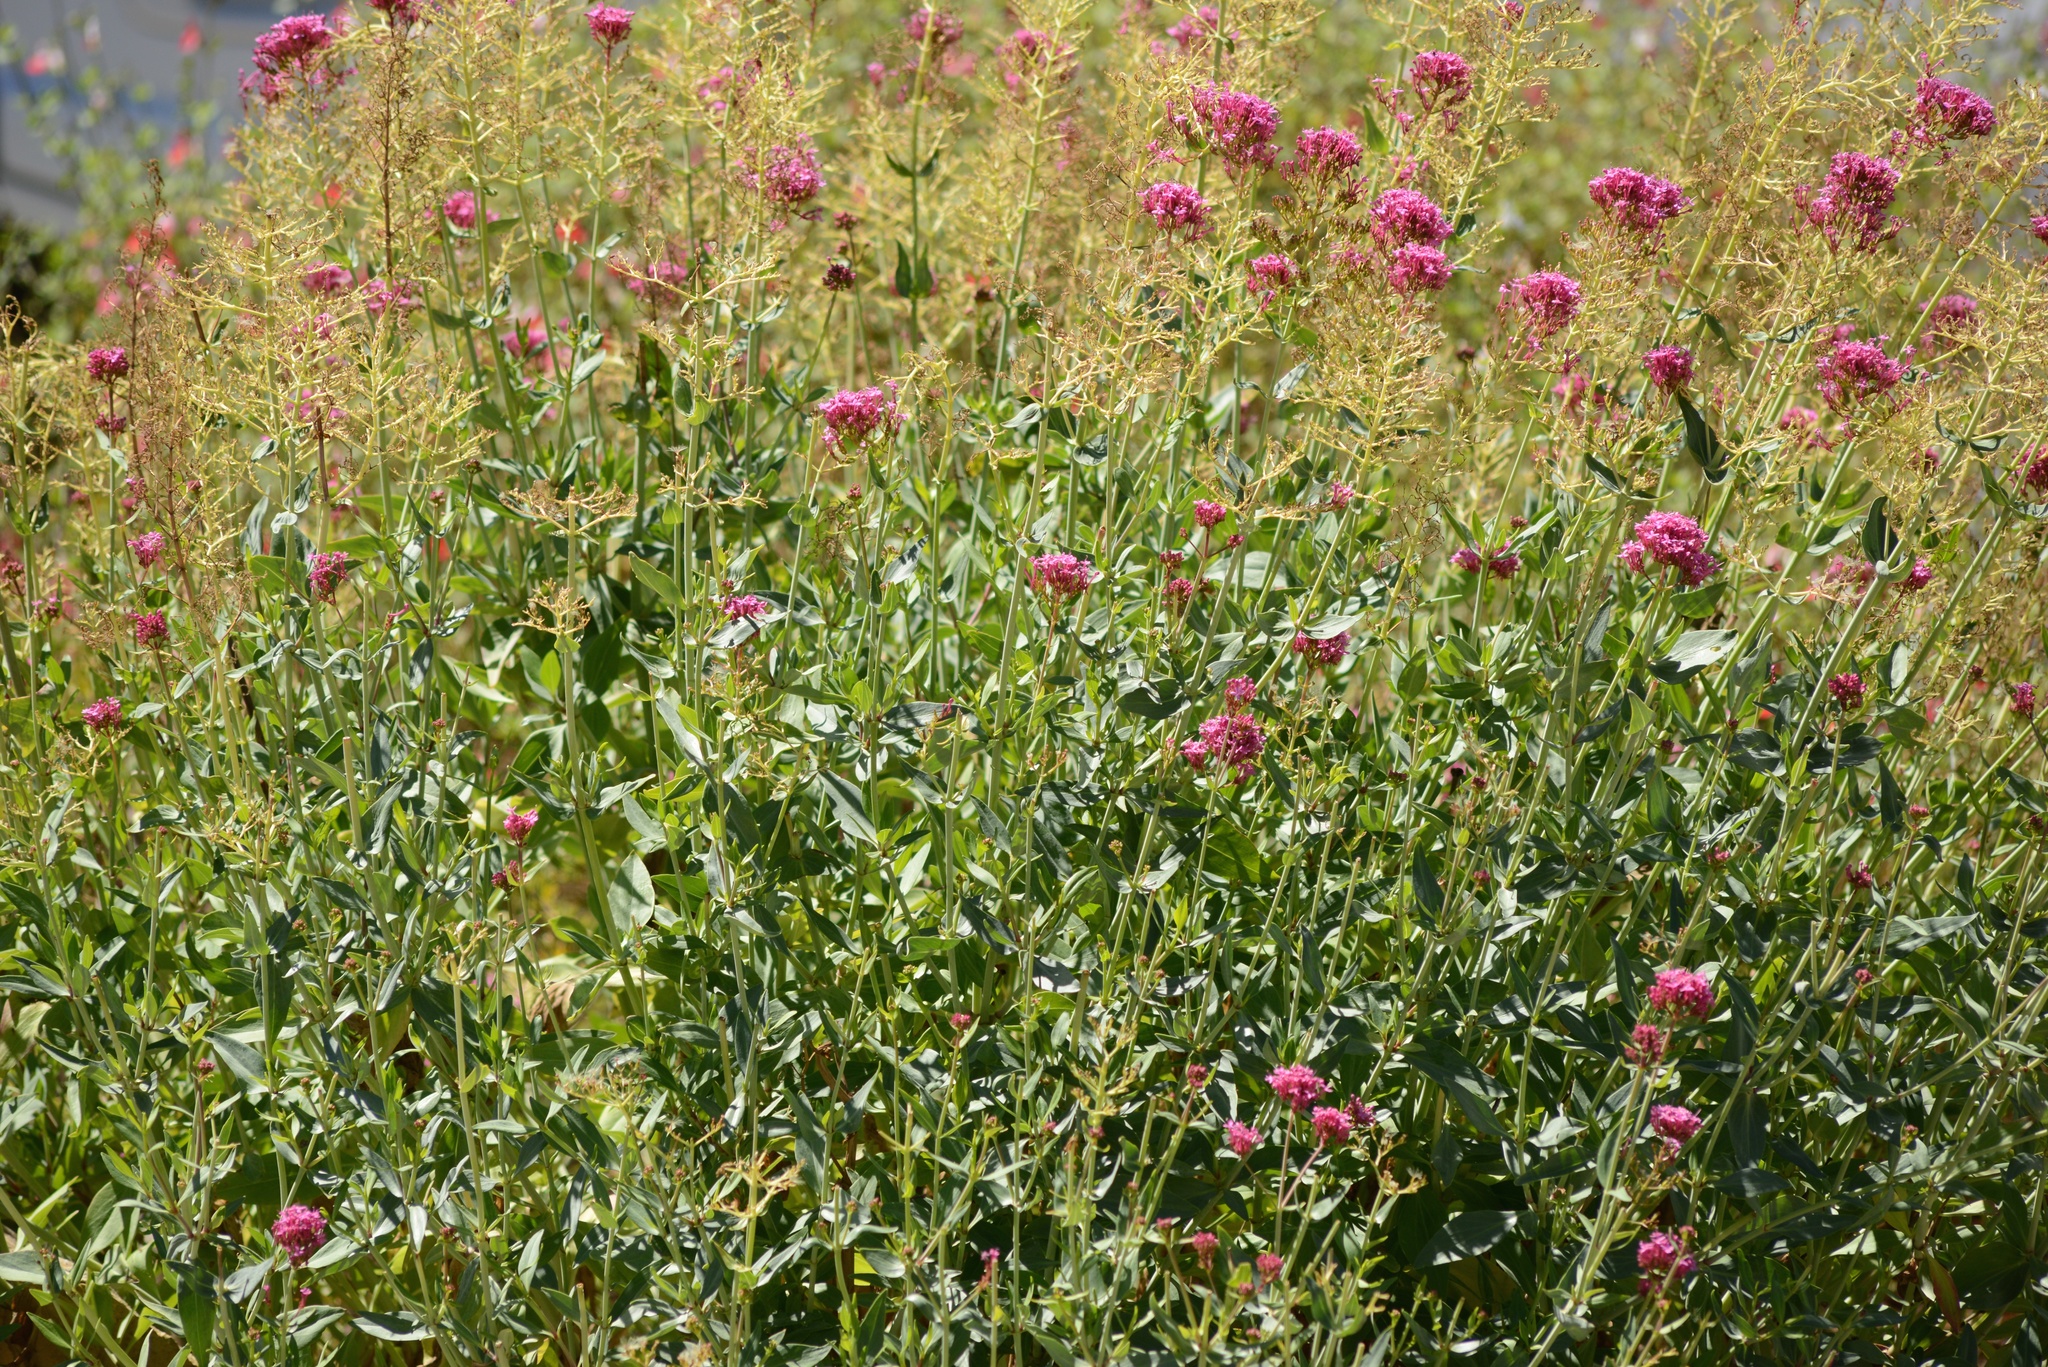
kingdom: Plantae
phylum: Tracheophyta
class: Magnoliopsida
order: Dipsacales
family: Caprifoliaceae
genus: Centranthus
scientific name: Centranthus ruber
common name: Red valerian
